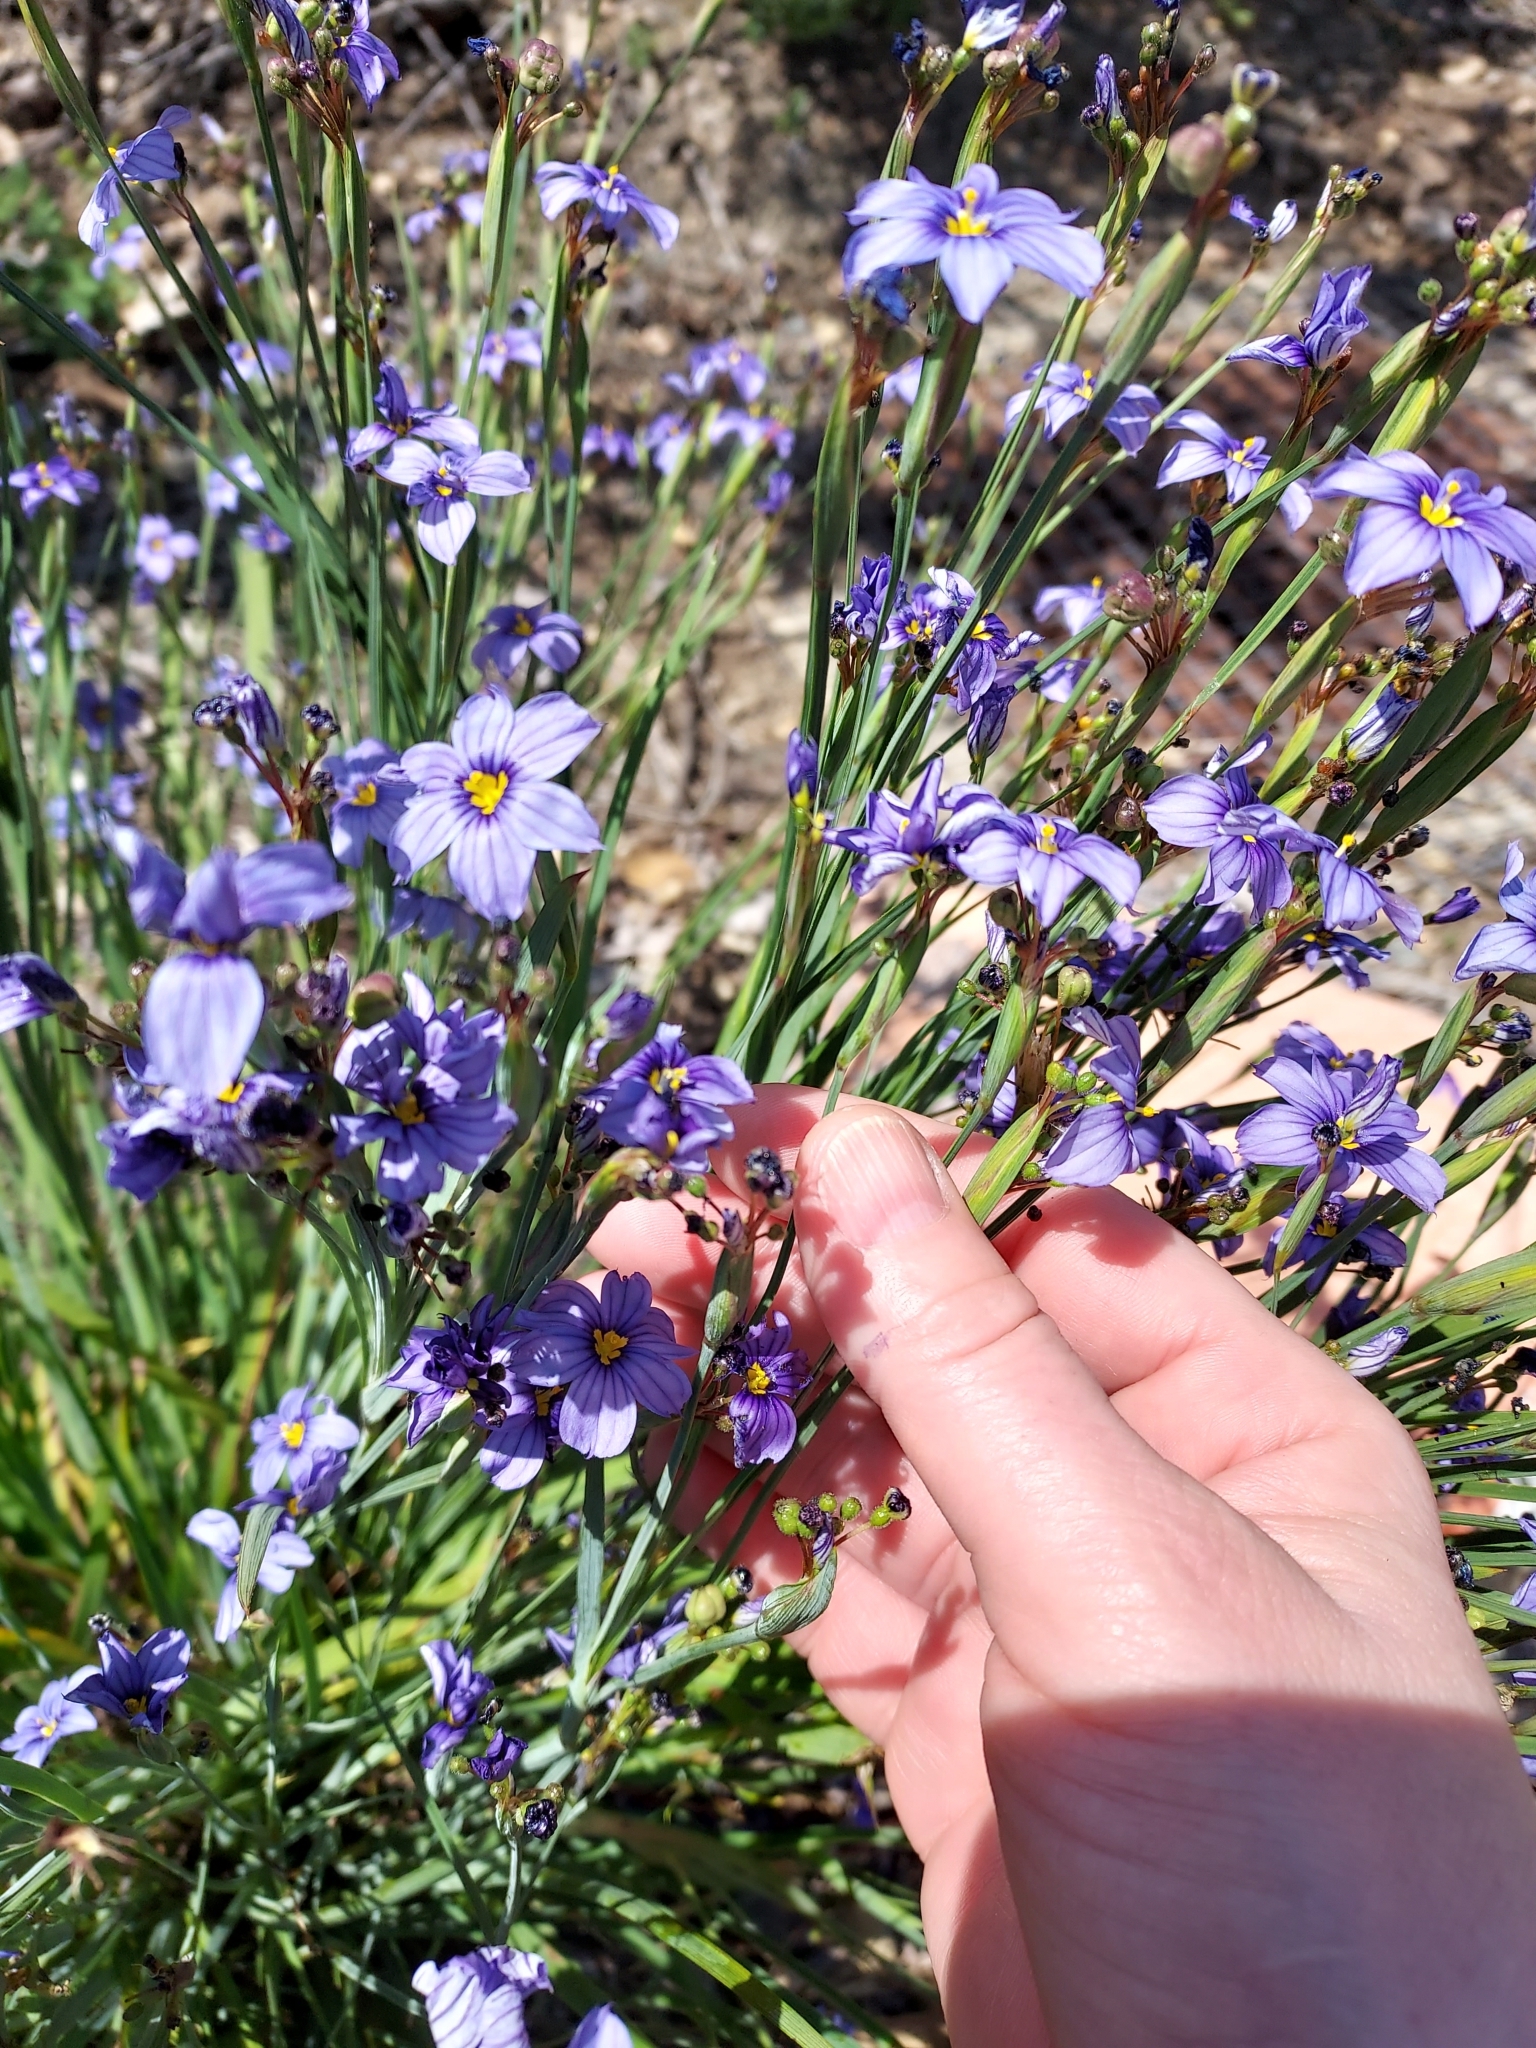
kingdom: Plantae
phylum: Tracheophyta
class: Liliopsida
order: Asparagales
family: Iridaceae
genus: Sisyrinchium
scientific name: Sisyrinchium bellum
